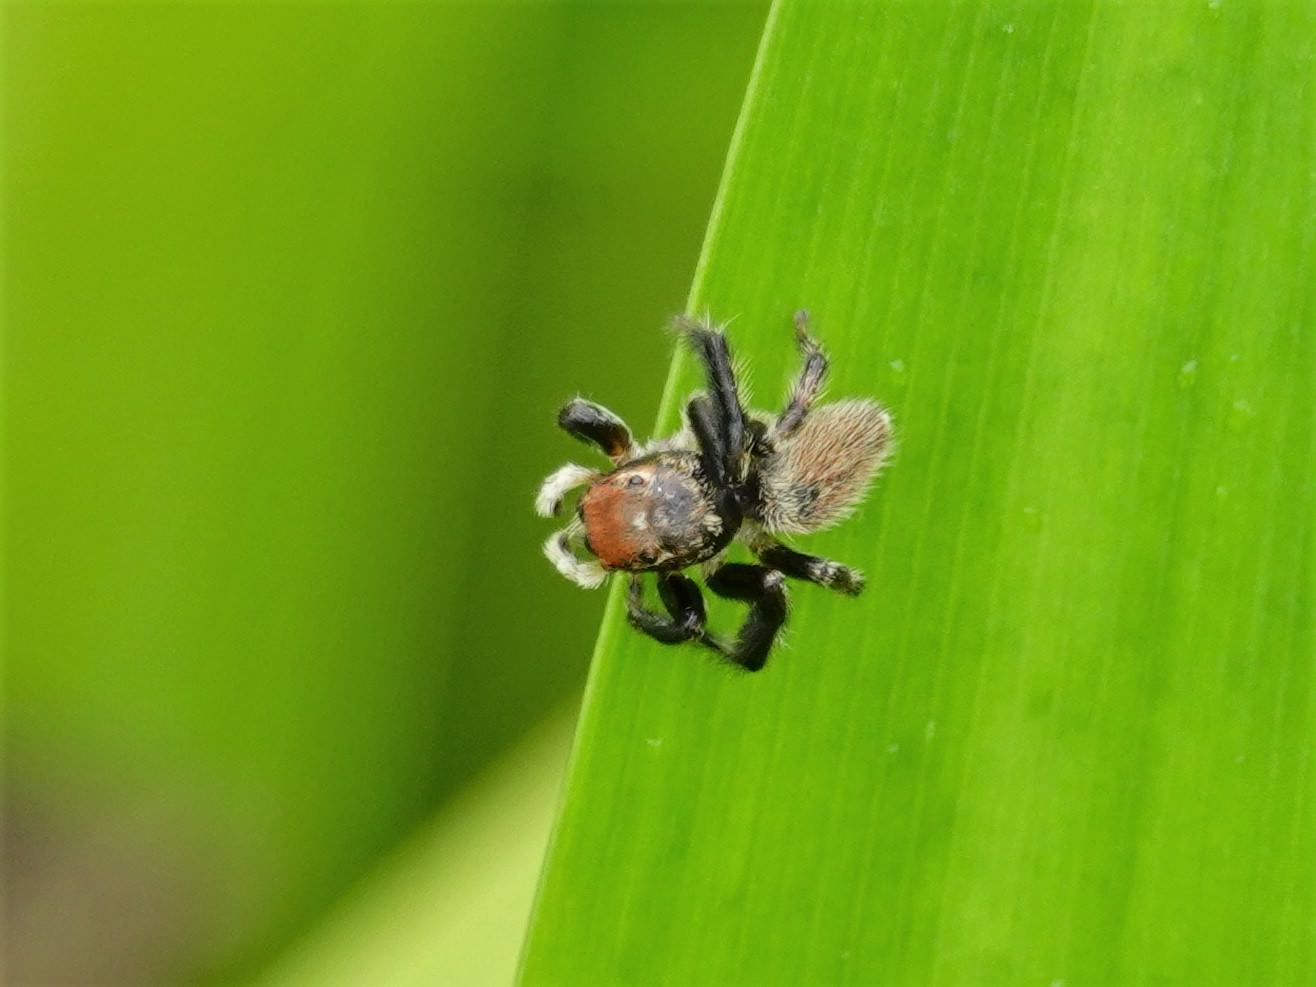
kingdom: Animalia
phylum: Arthropoda
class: Arachnida
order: Araneae
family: Salticidae
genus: Maratus
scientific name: Maratus griseus
